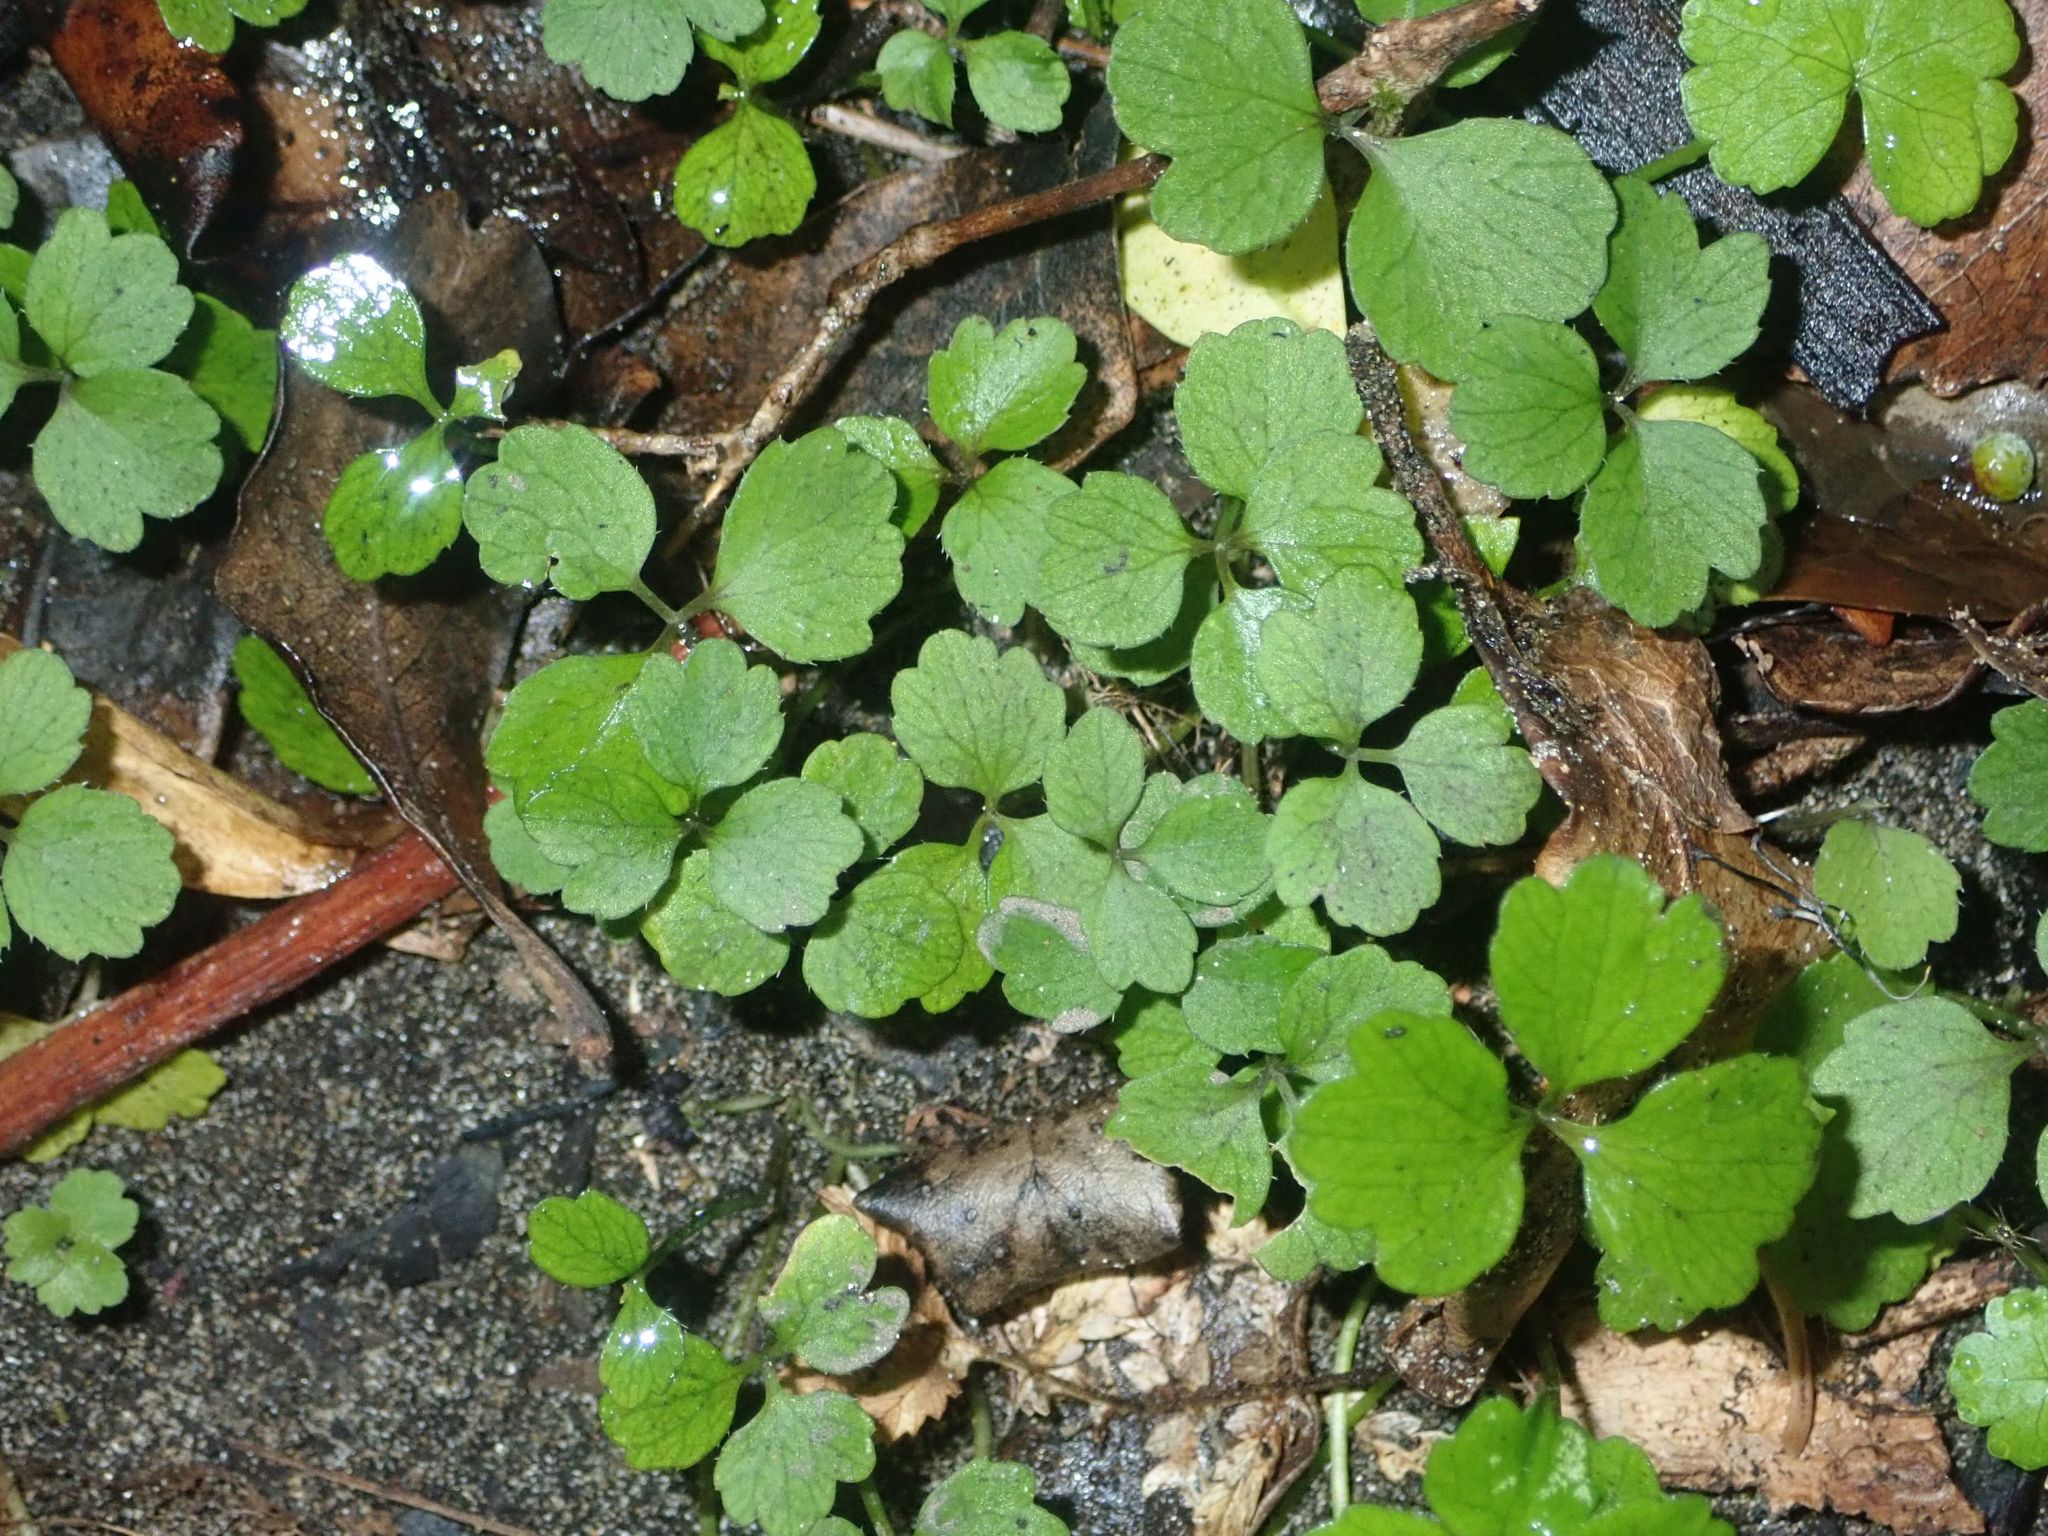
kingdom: Plantae
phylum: Tracheophyta
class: Magnoliopsida
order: Apiales
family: Apiaceae
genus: Azorella
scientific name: Azorella hookeri
